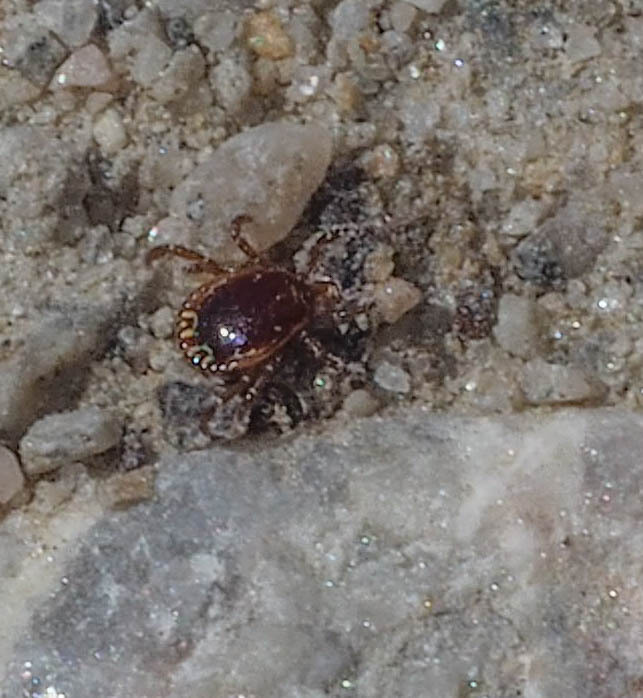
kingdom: Animalia
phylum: Arthropoda
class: Arachnida
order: Ixodida
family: Ixodidae
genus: Amblyomma
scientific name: Amblyomma americanum
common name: Lone star tick
